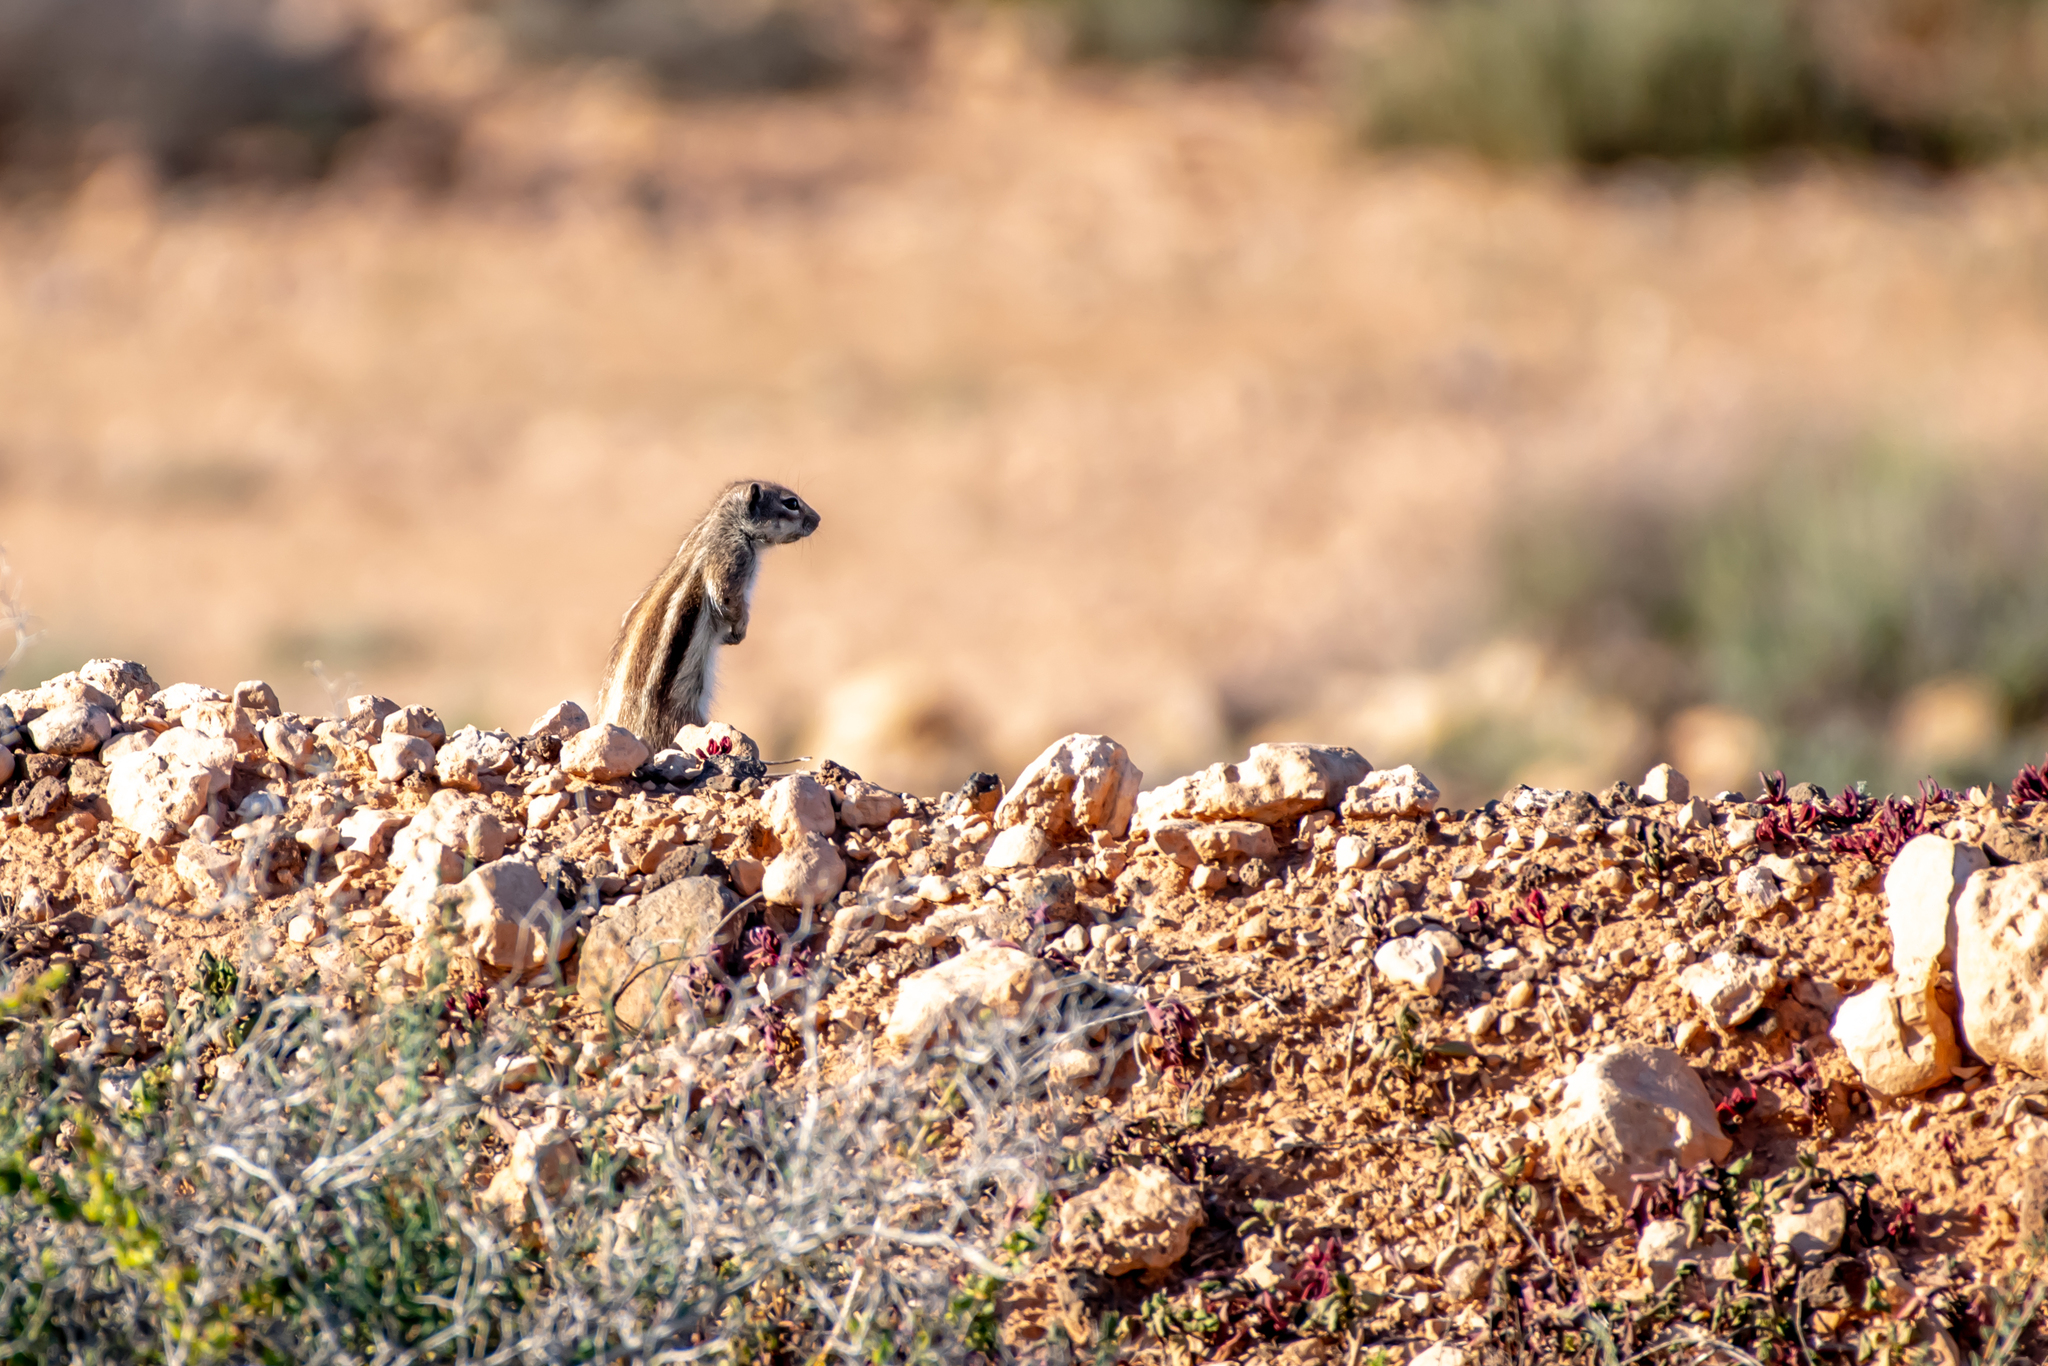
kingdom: Animalia
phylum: Chordata
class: Mammalia
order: Rodentia
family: Sciuridae
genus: Atlantoxerus
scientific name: Atlantoxerus getulus
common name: Barbary ground squirrel
